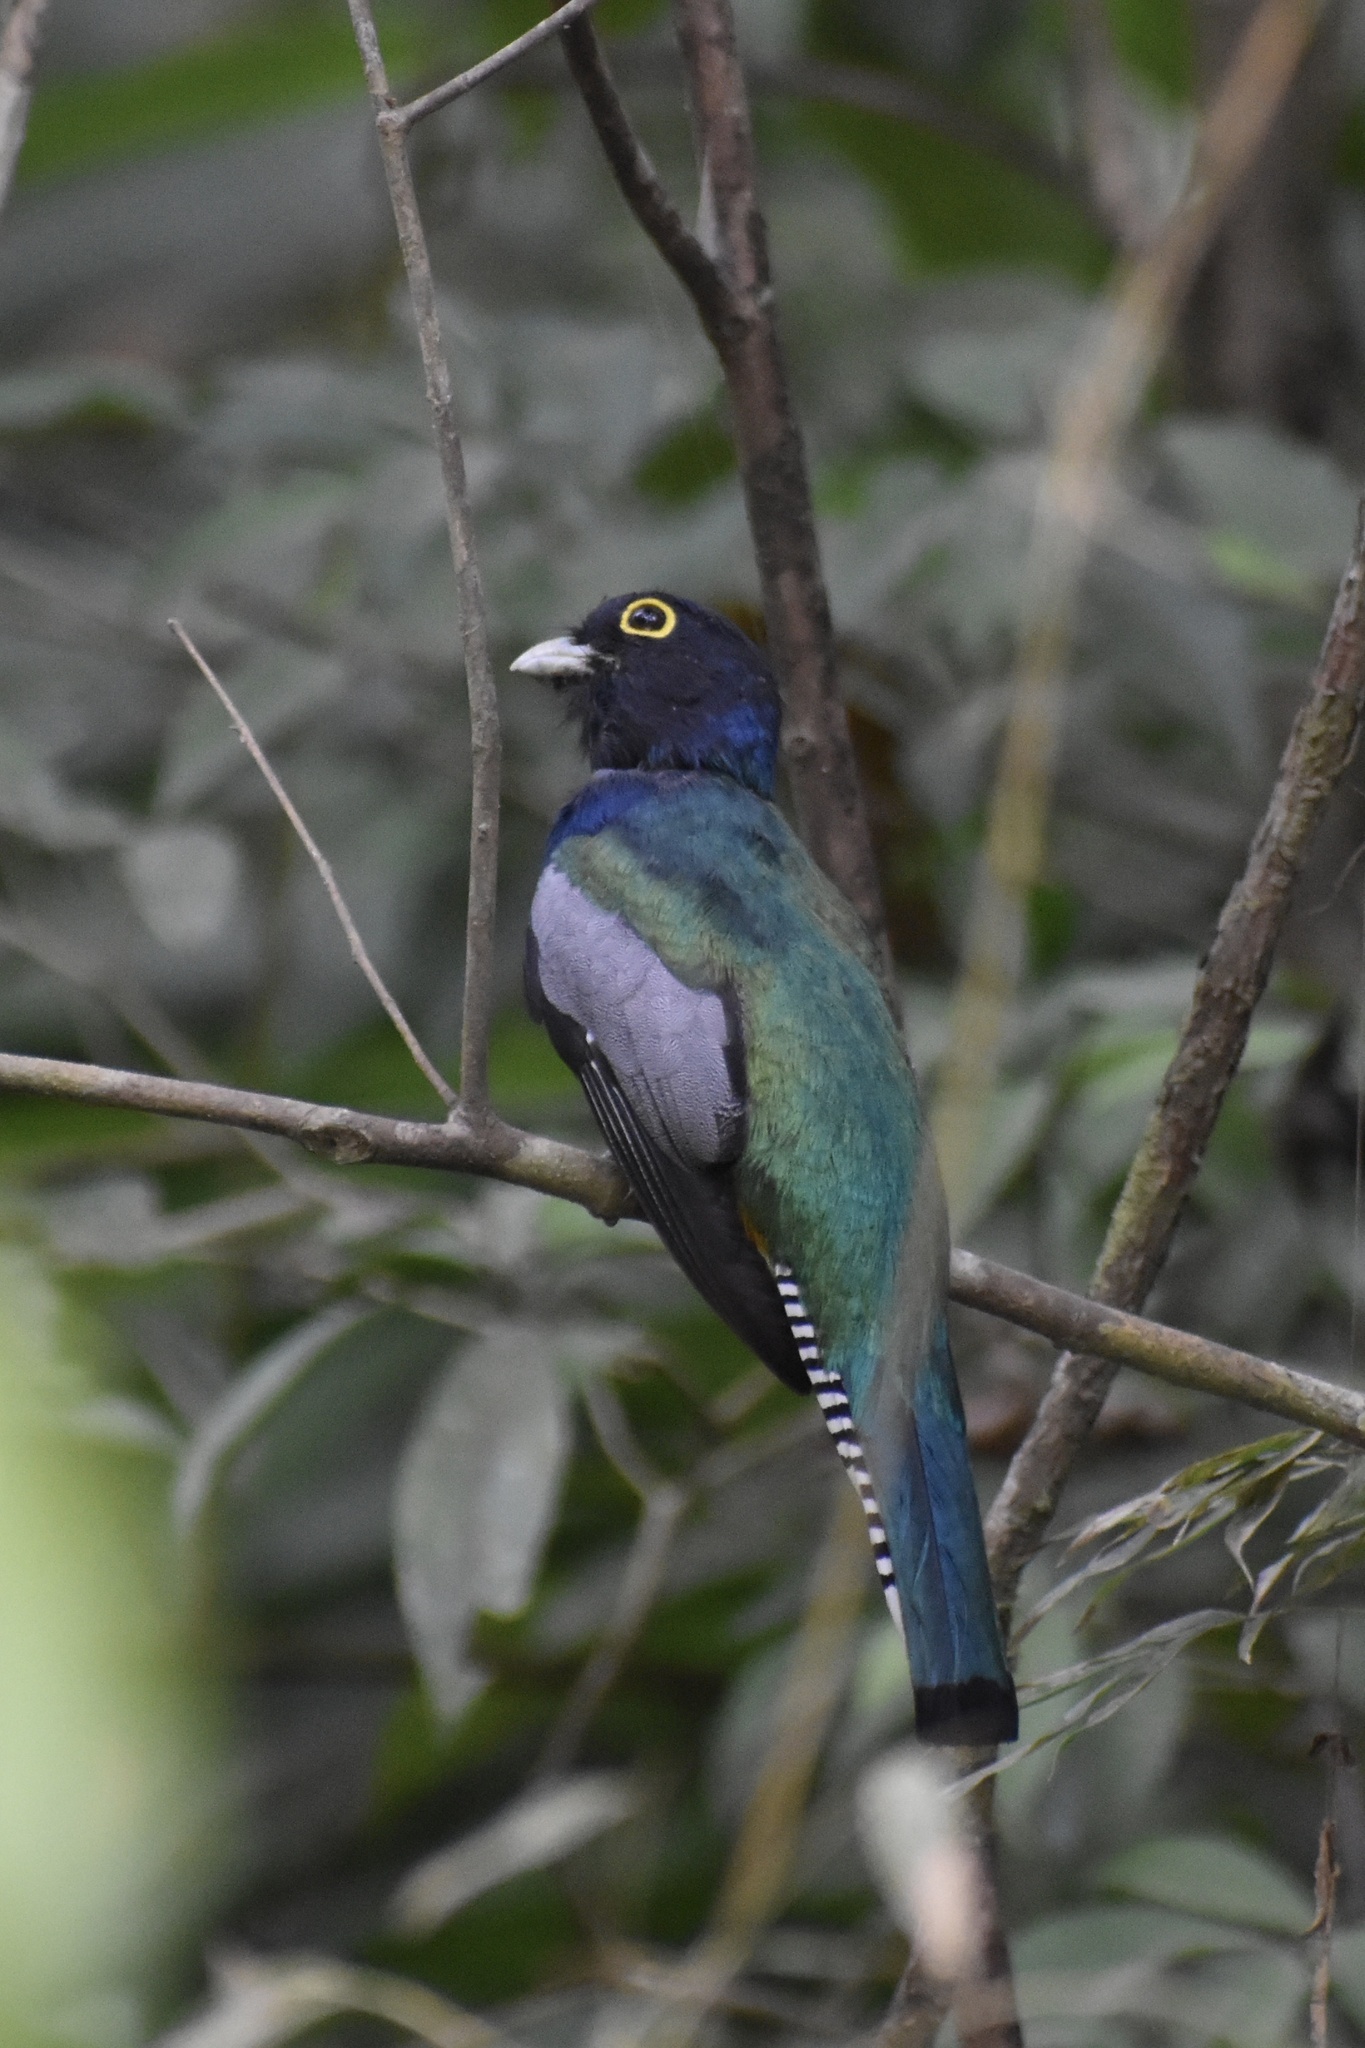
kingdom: Animalia
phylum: Chordata
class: Aves
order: Trogoniformes
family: Trogonidae
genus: Trogon
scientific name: Trogon caligatus
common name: Gartered trogon
